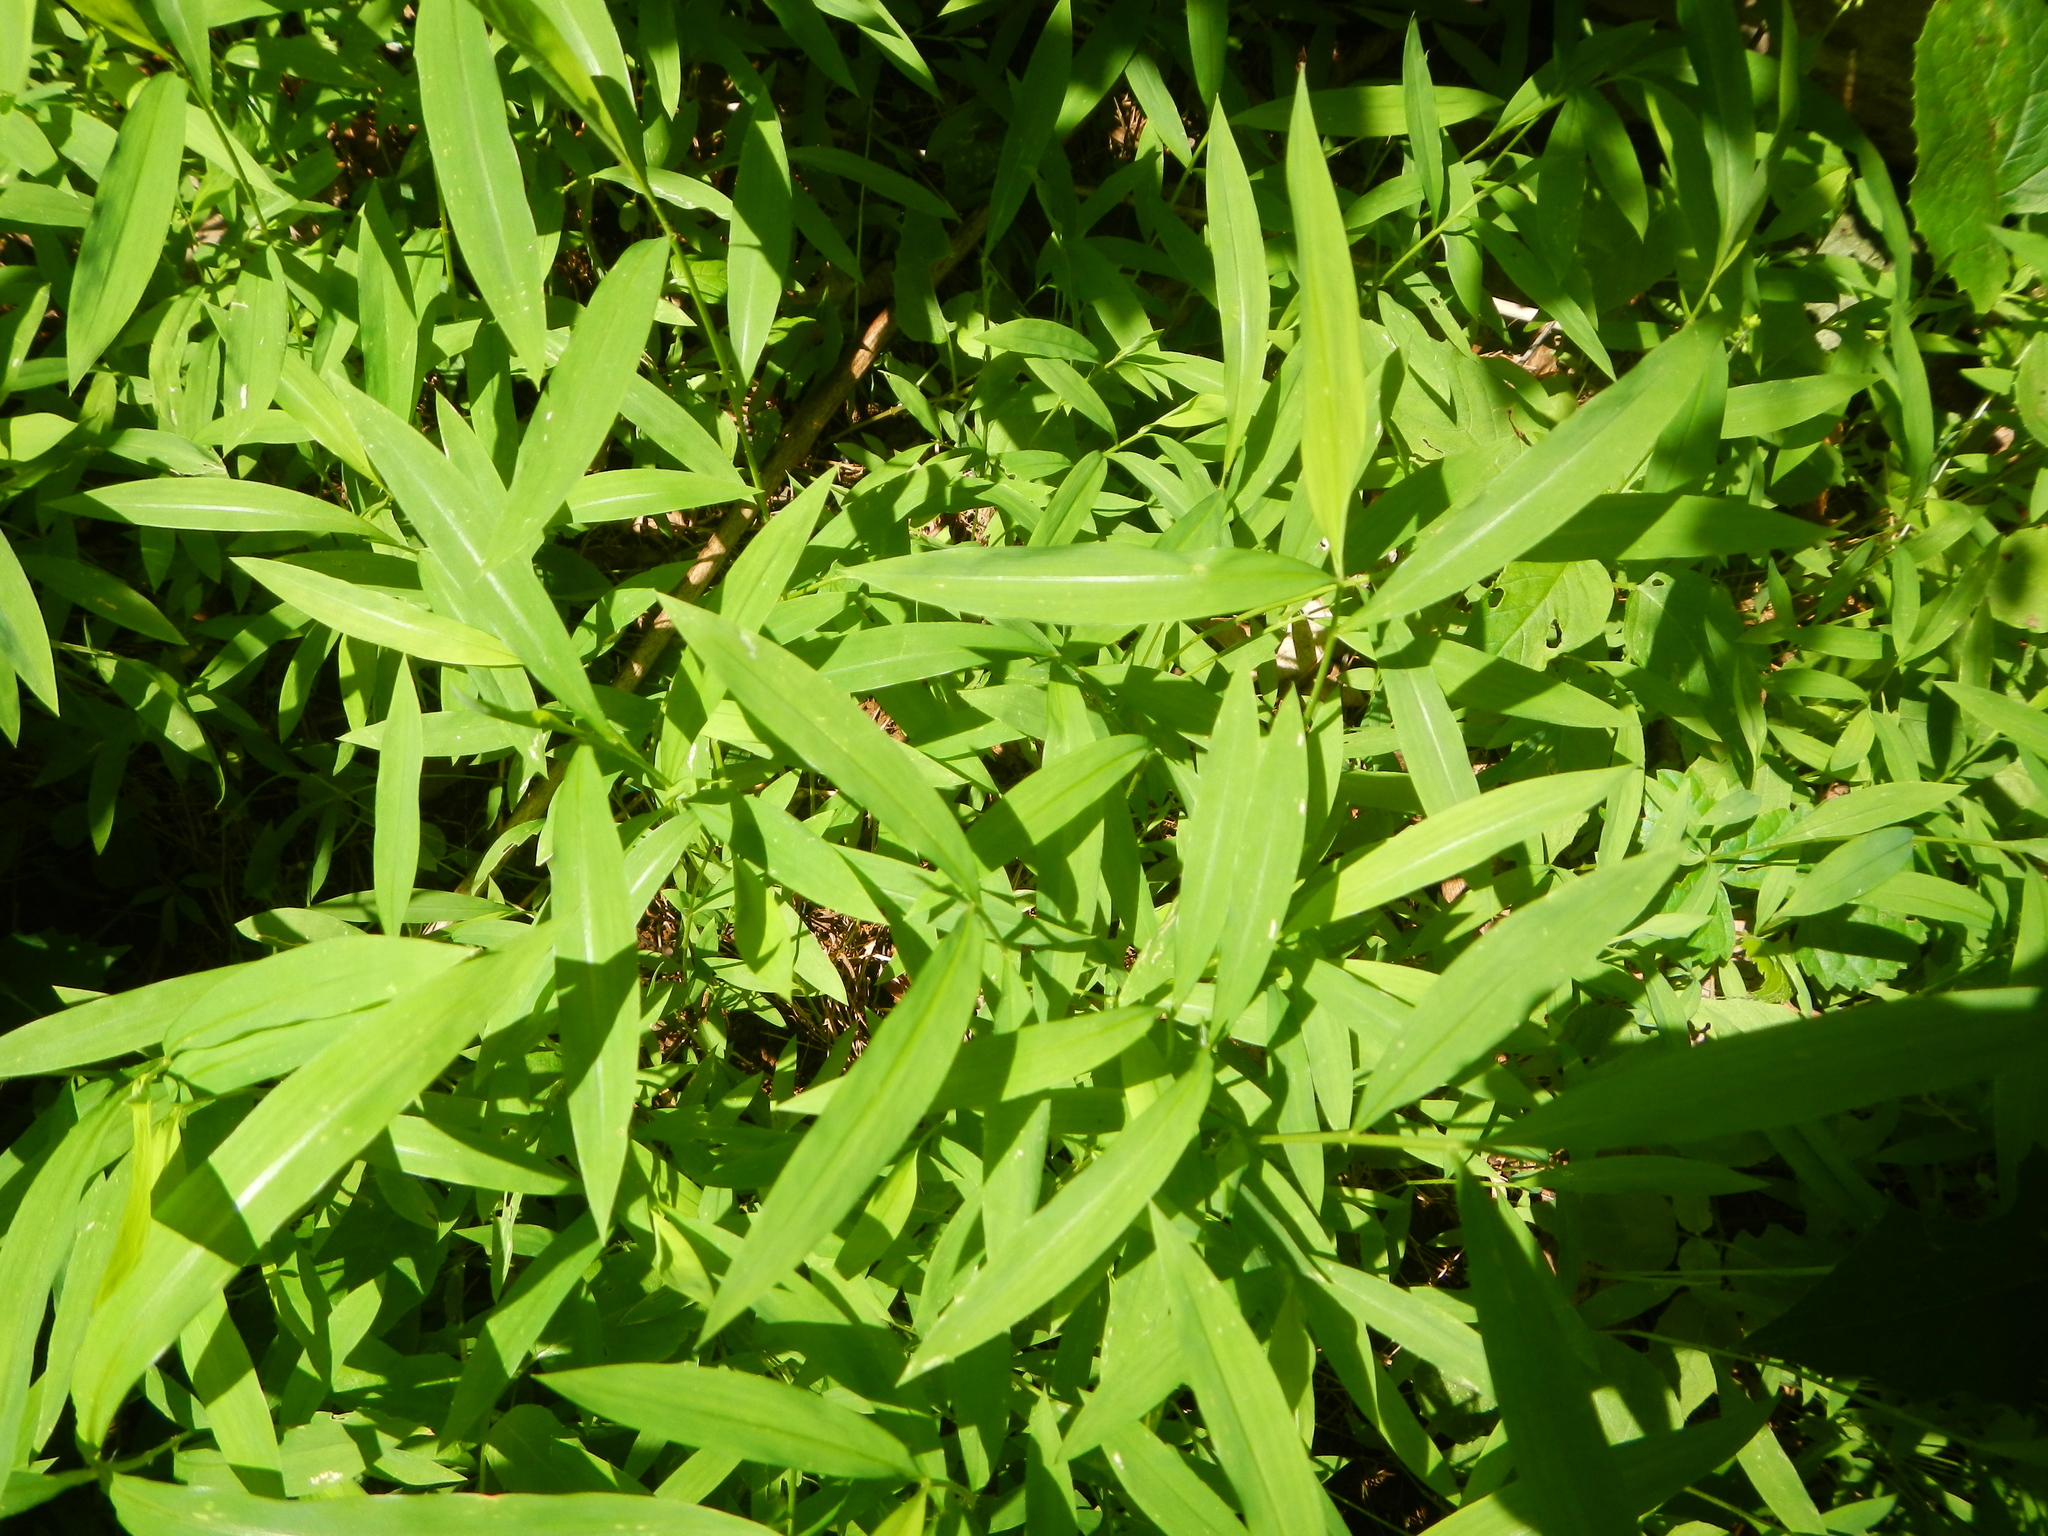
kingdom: Plantae
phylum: Tracheophyta
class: Liliopsida
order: Poales
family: Poaceae
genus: Microstegium
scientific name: Microstegium vimineum
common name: Japanese stiltgrass
